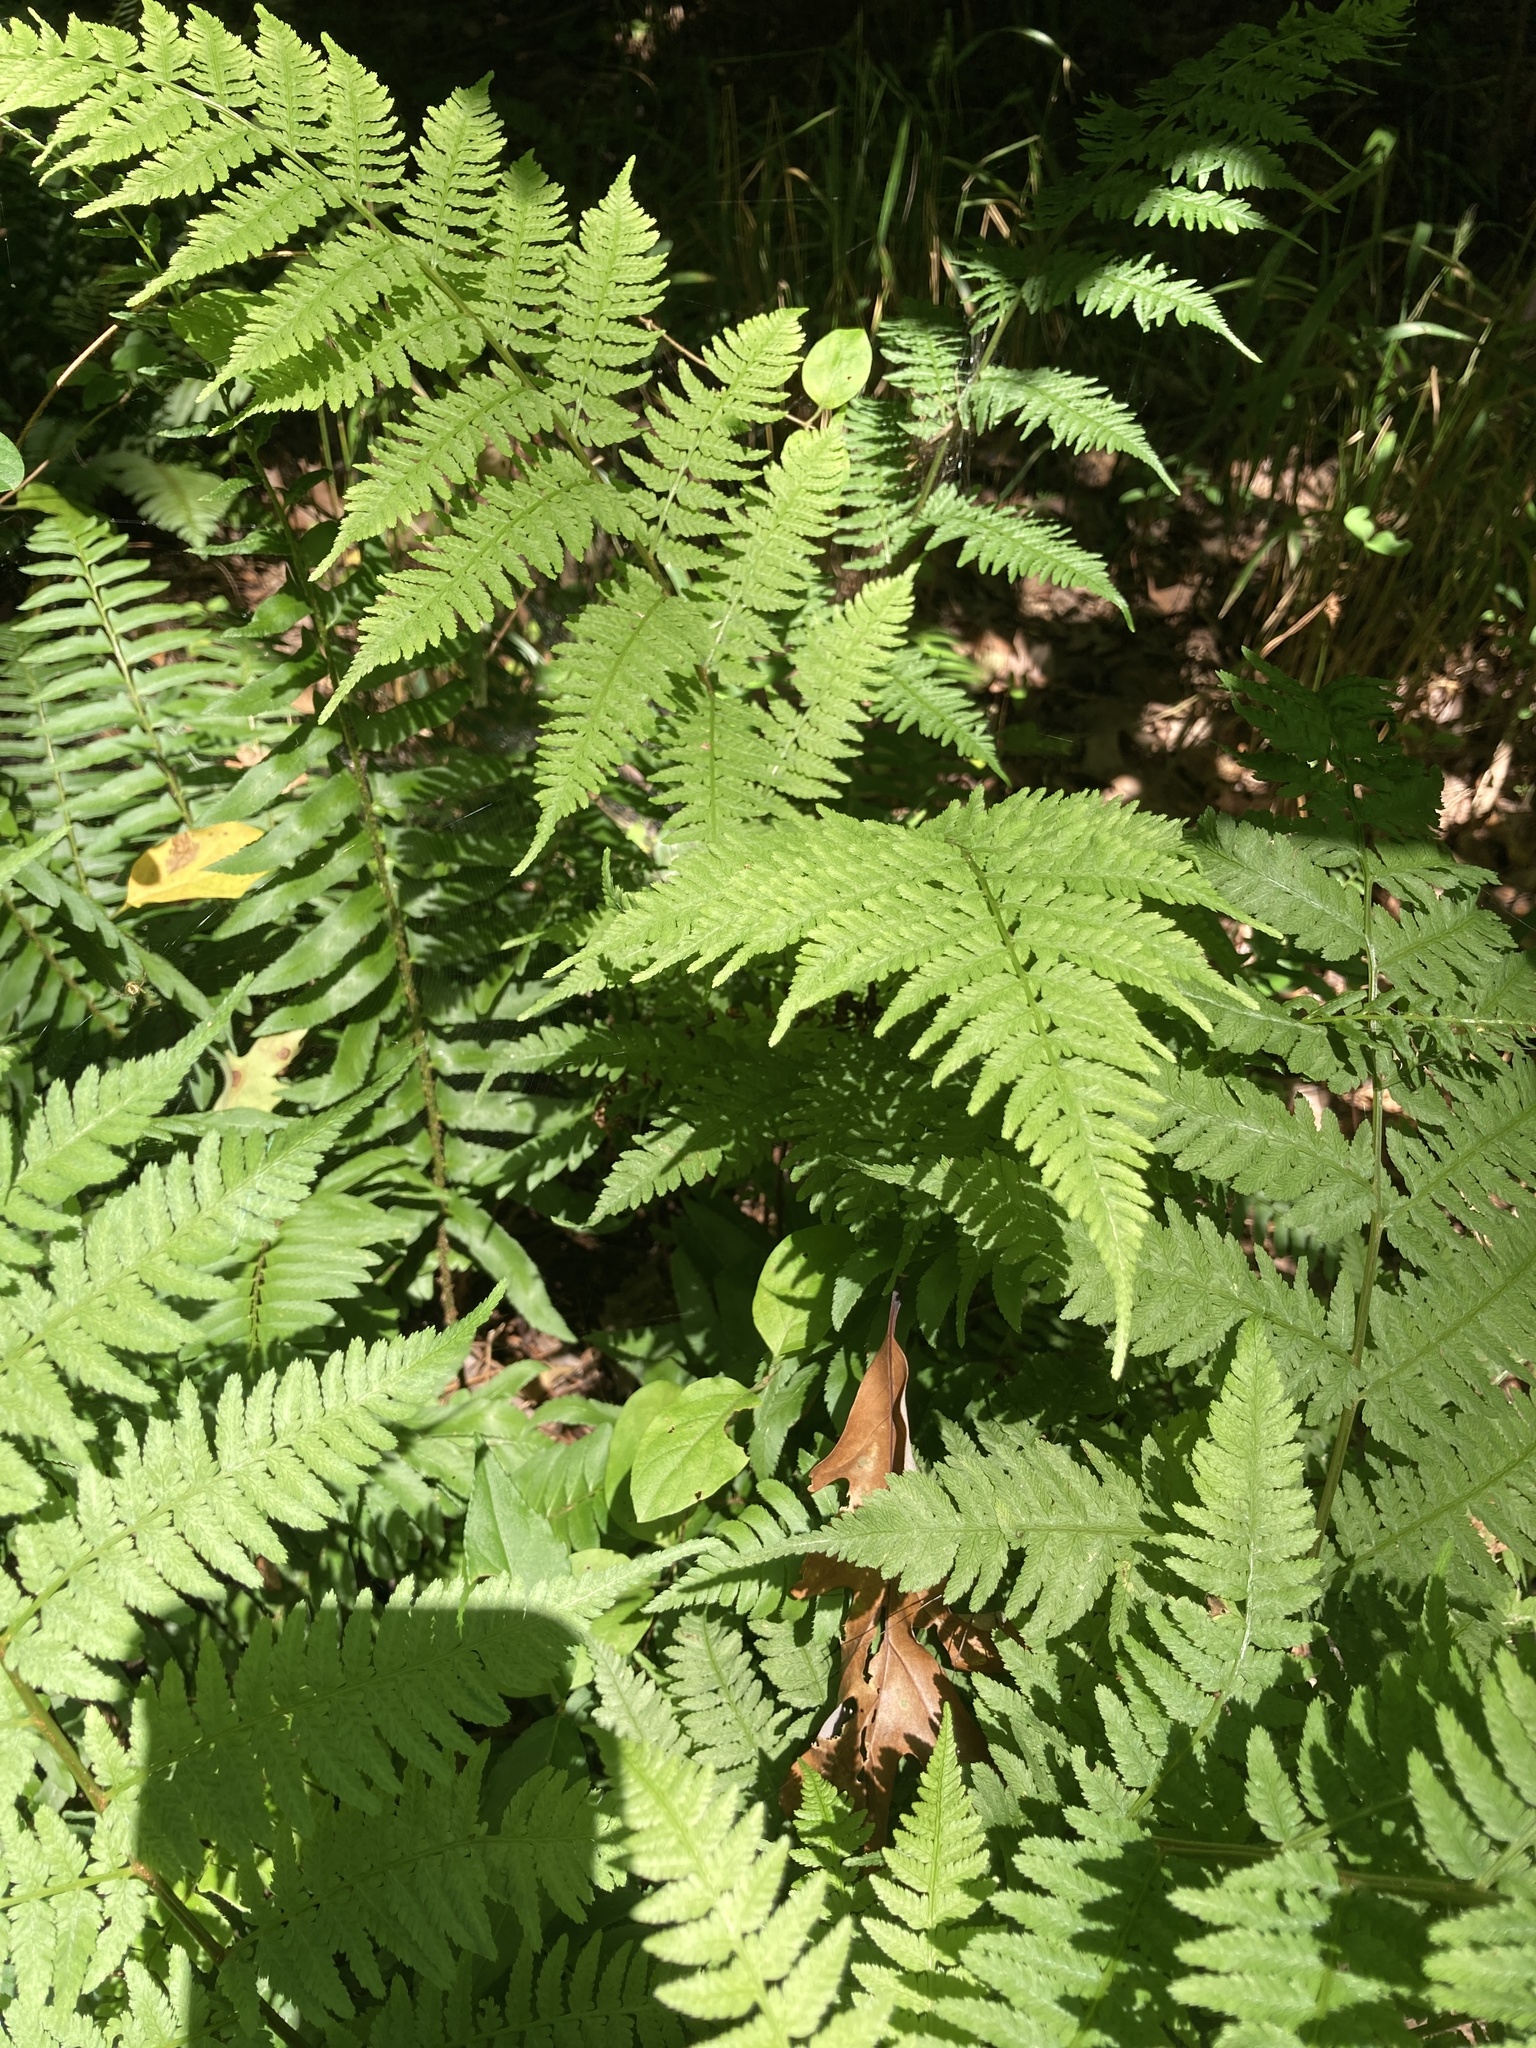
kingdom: Plantae
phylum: Tracheophyta
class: Polypodiopsida
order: Polypodiales
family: Athyriaceae
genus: Athyrium
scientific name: Athyrium asplenioides
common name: Southern lady fern
